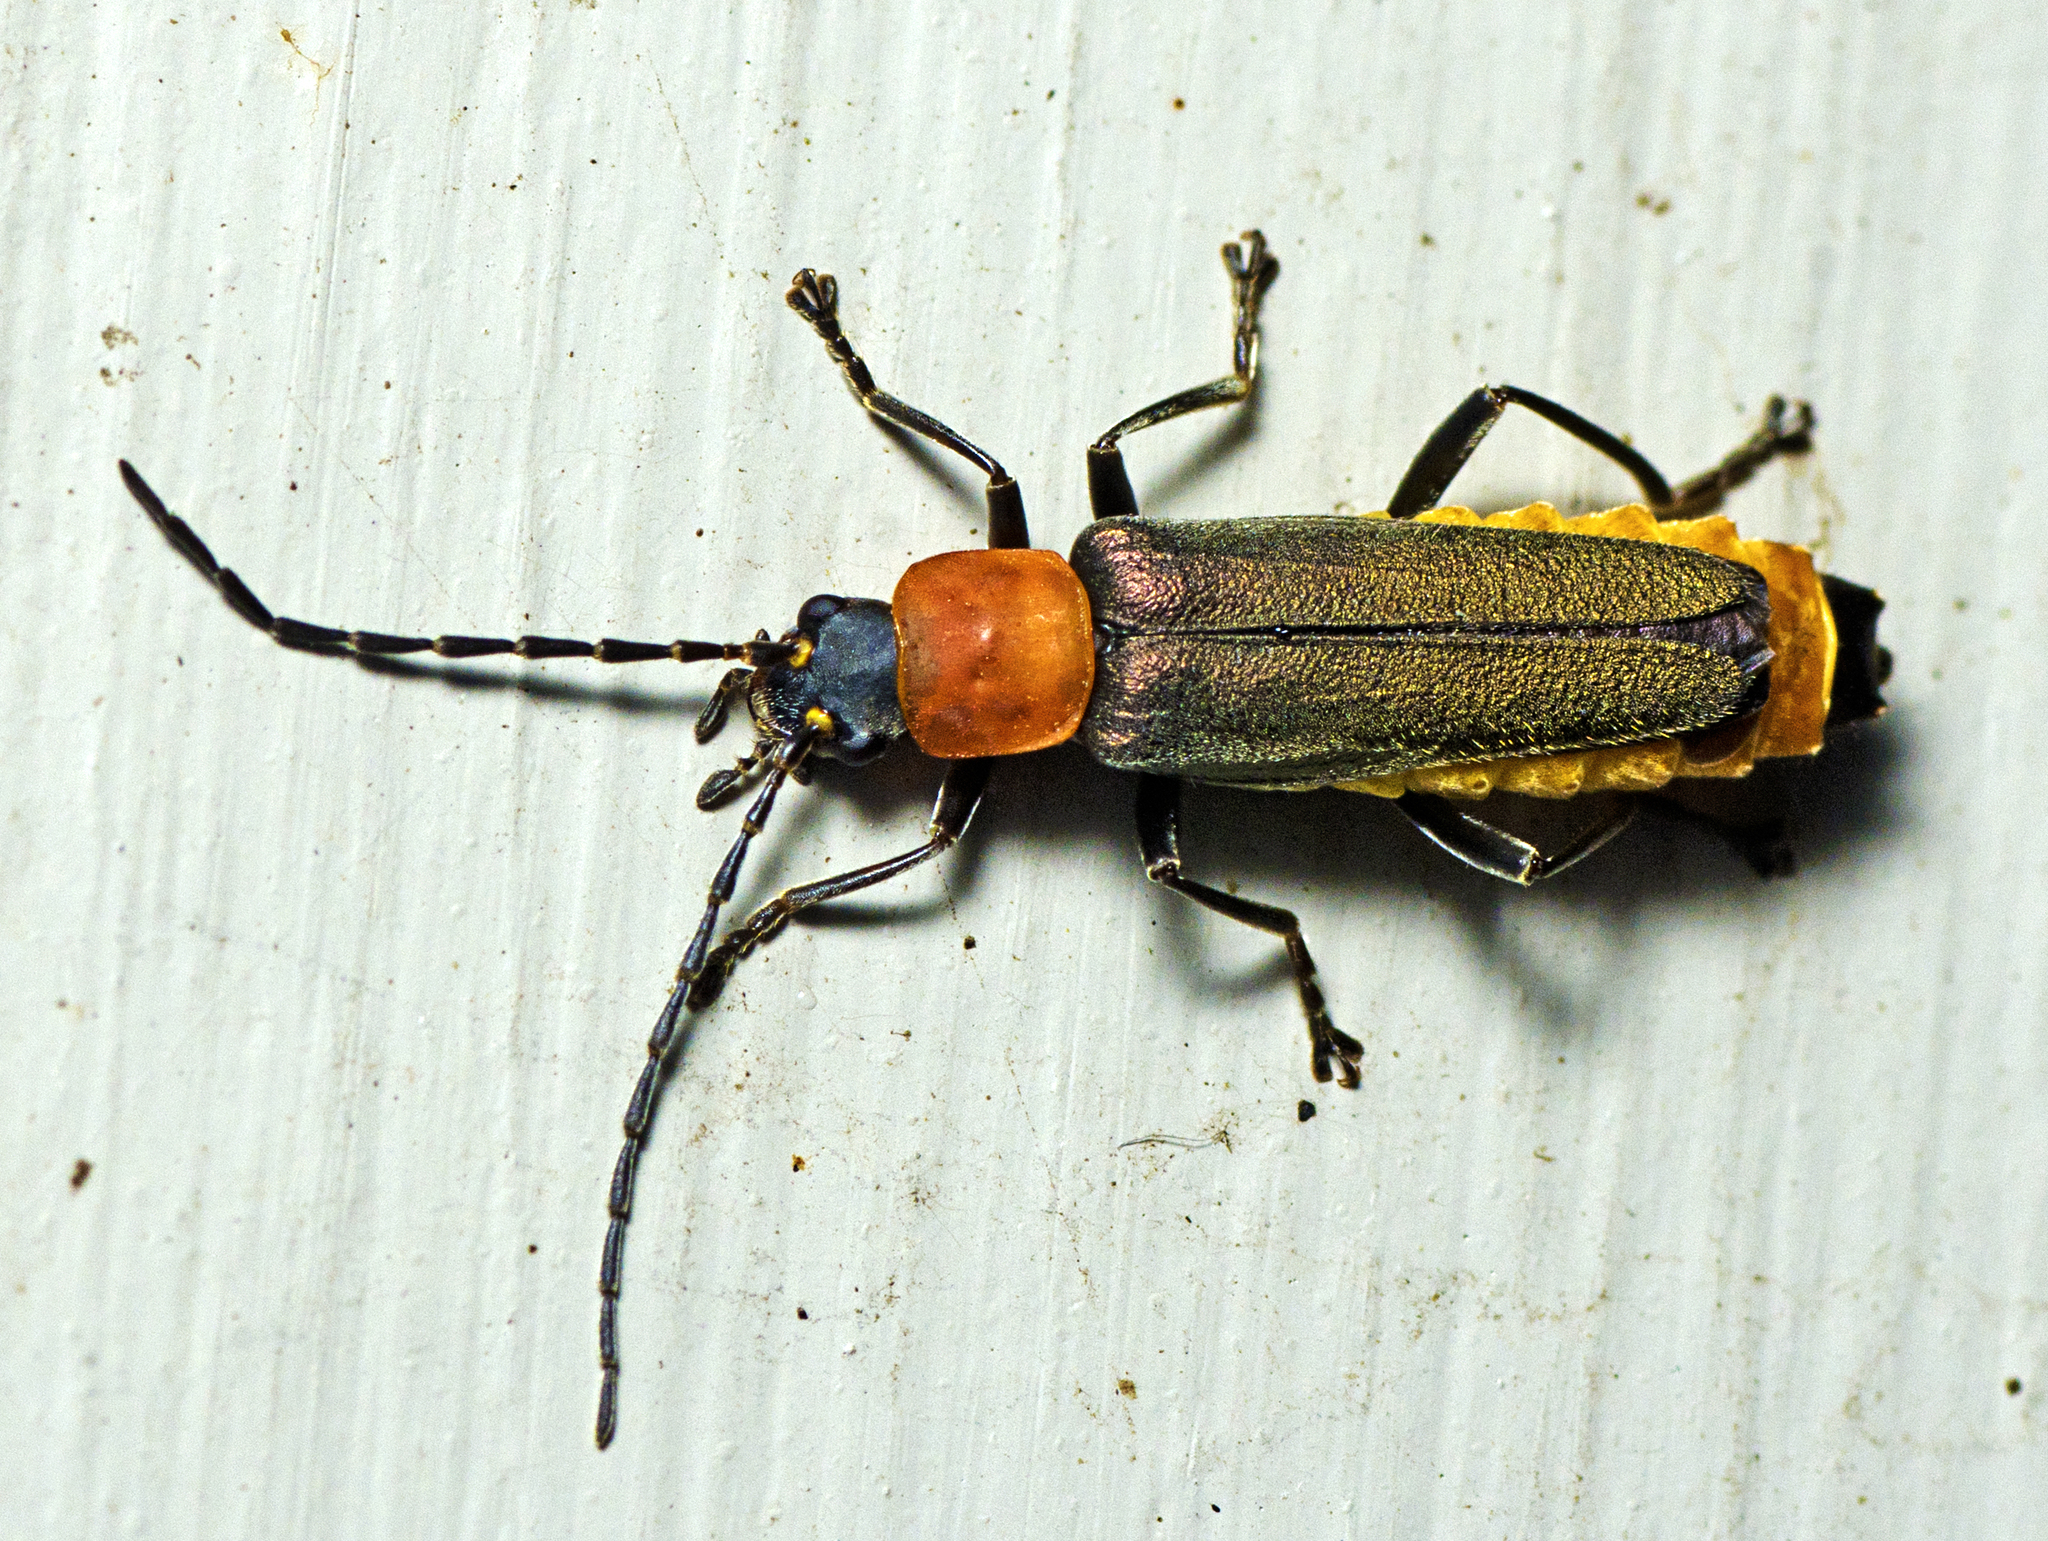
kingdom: Animalia
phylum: Arthropoda
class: Insecta
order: Coleoptera
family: Cantharidae
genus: Chauliognathus
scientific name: Chauliognathus
